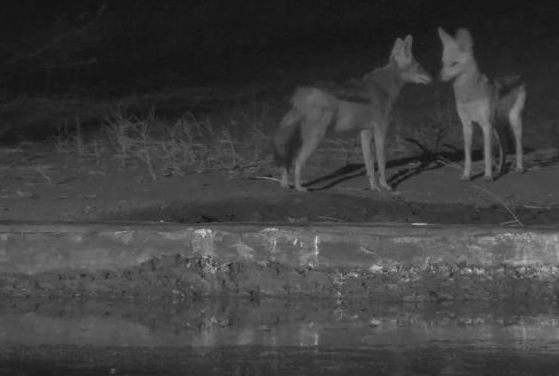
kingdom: Animalia
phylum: Chordata
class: Mammalia
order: Carnivora
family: Canidae
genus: Lupulella
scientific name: Lupulella
